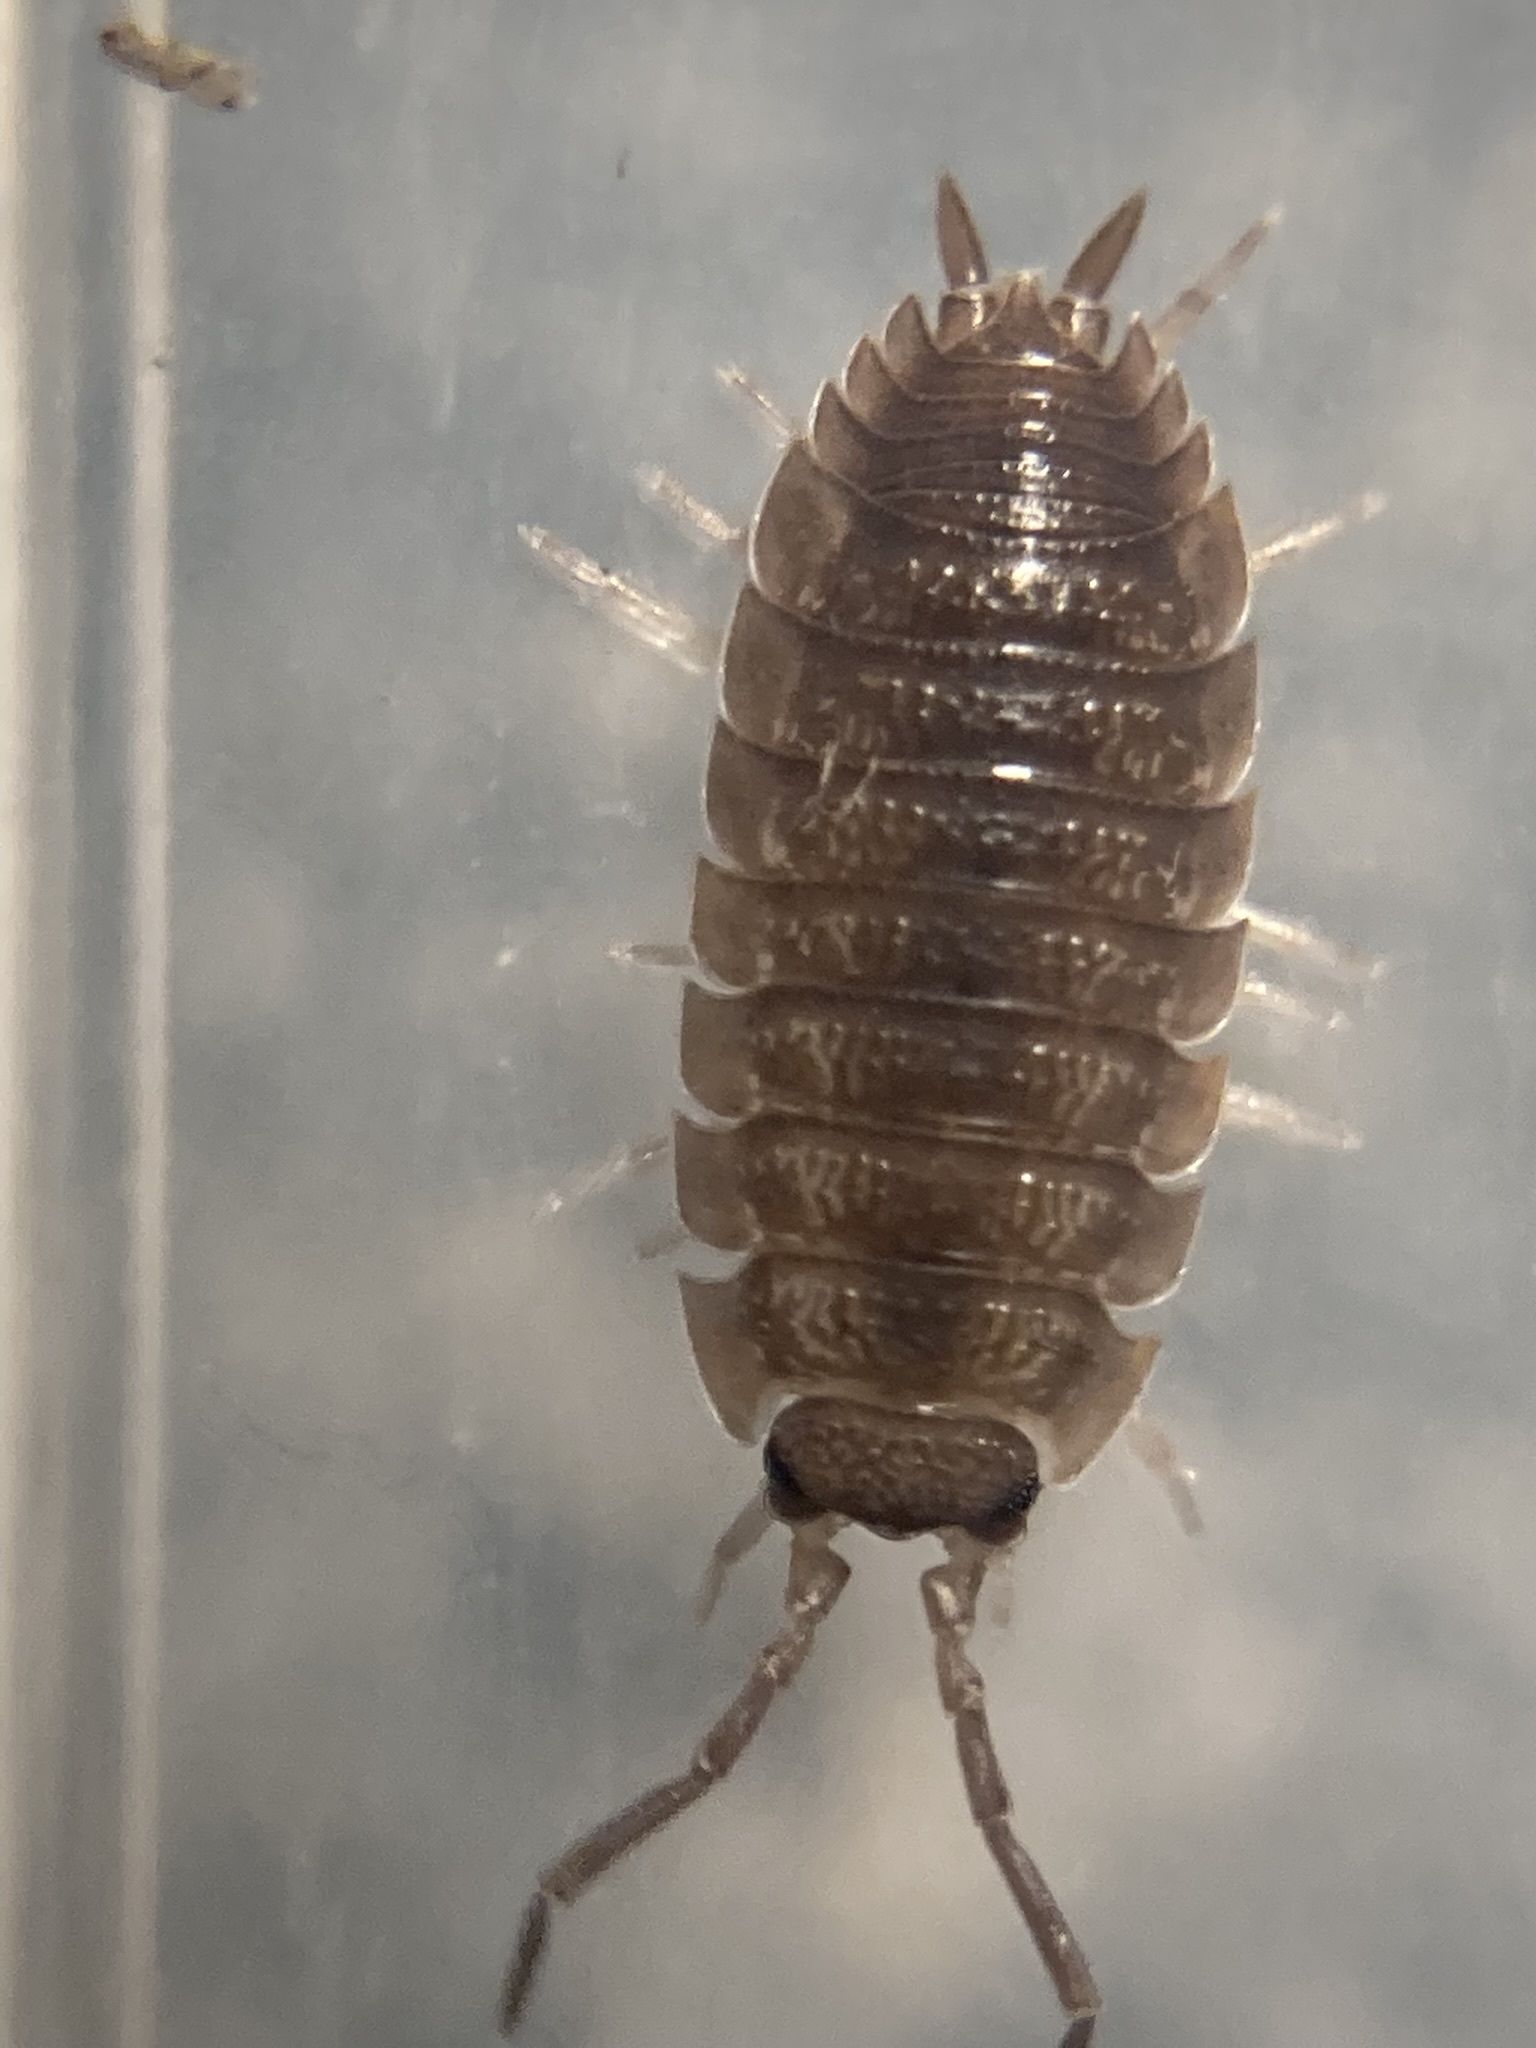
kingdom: Animalia
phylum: Arthropoda
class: Malacostraca
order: Isopoda
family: Porcellionidae
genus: Porcellio
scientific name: Porcellio scaber
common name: Common rough woodlouse
